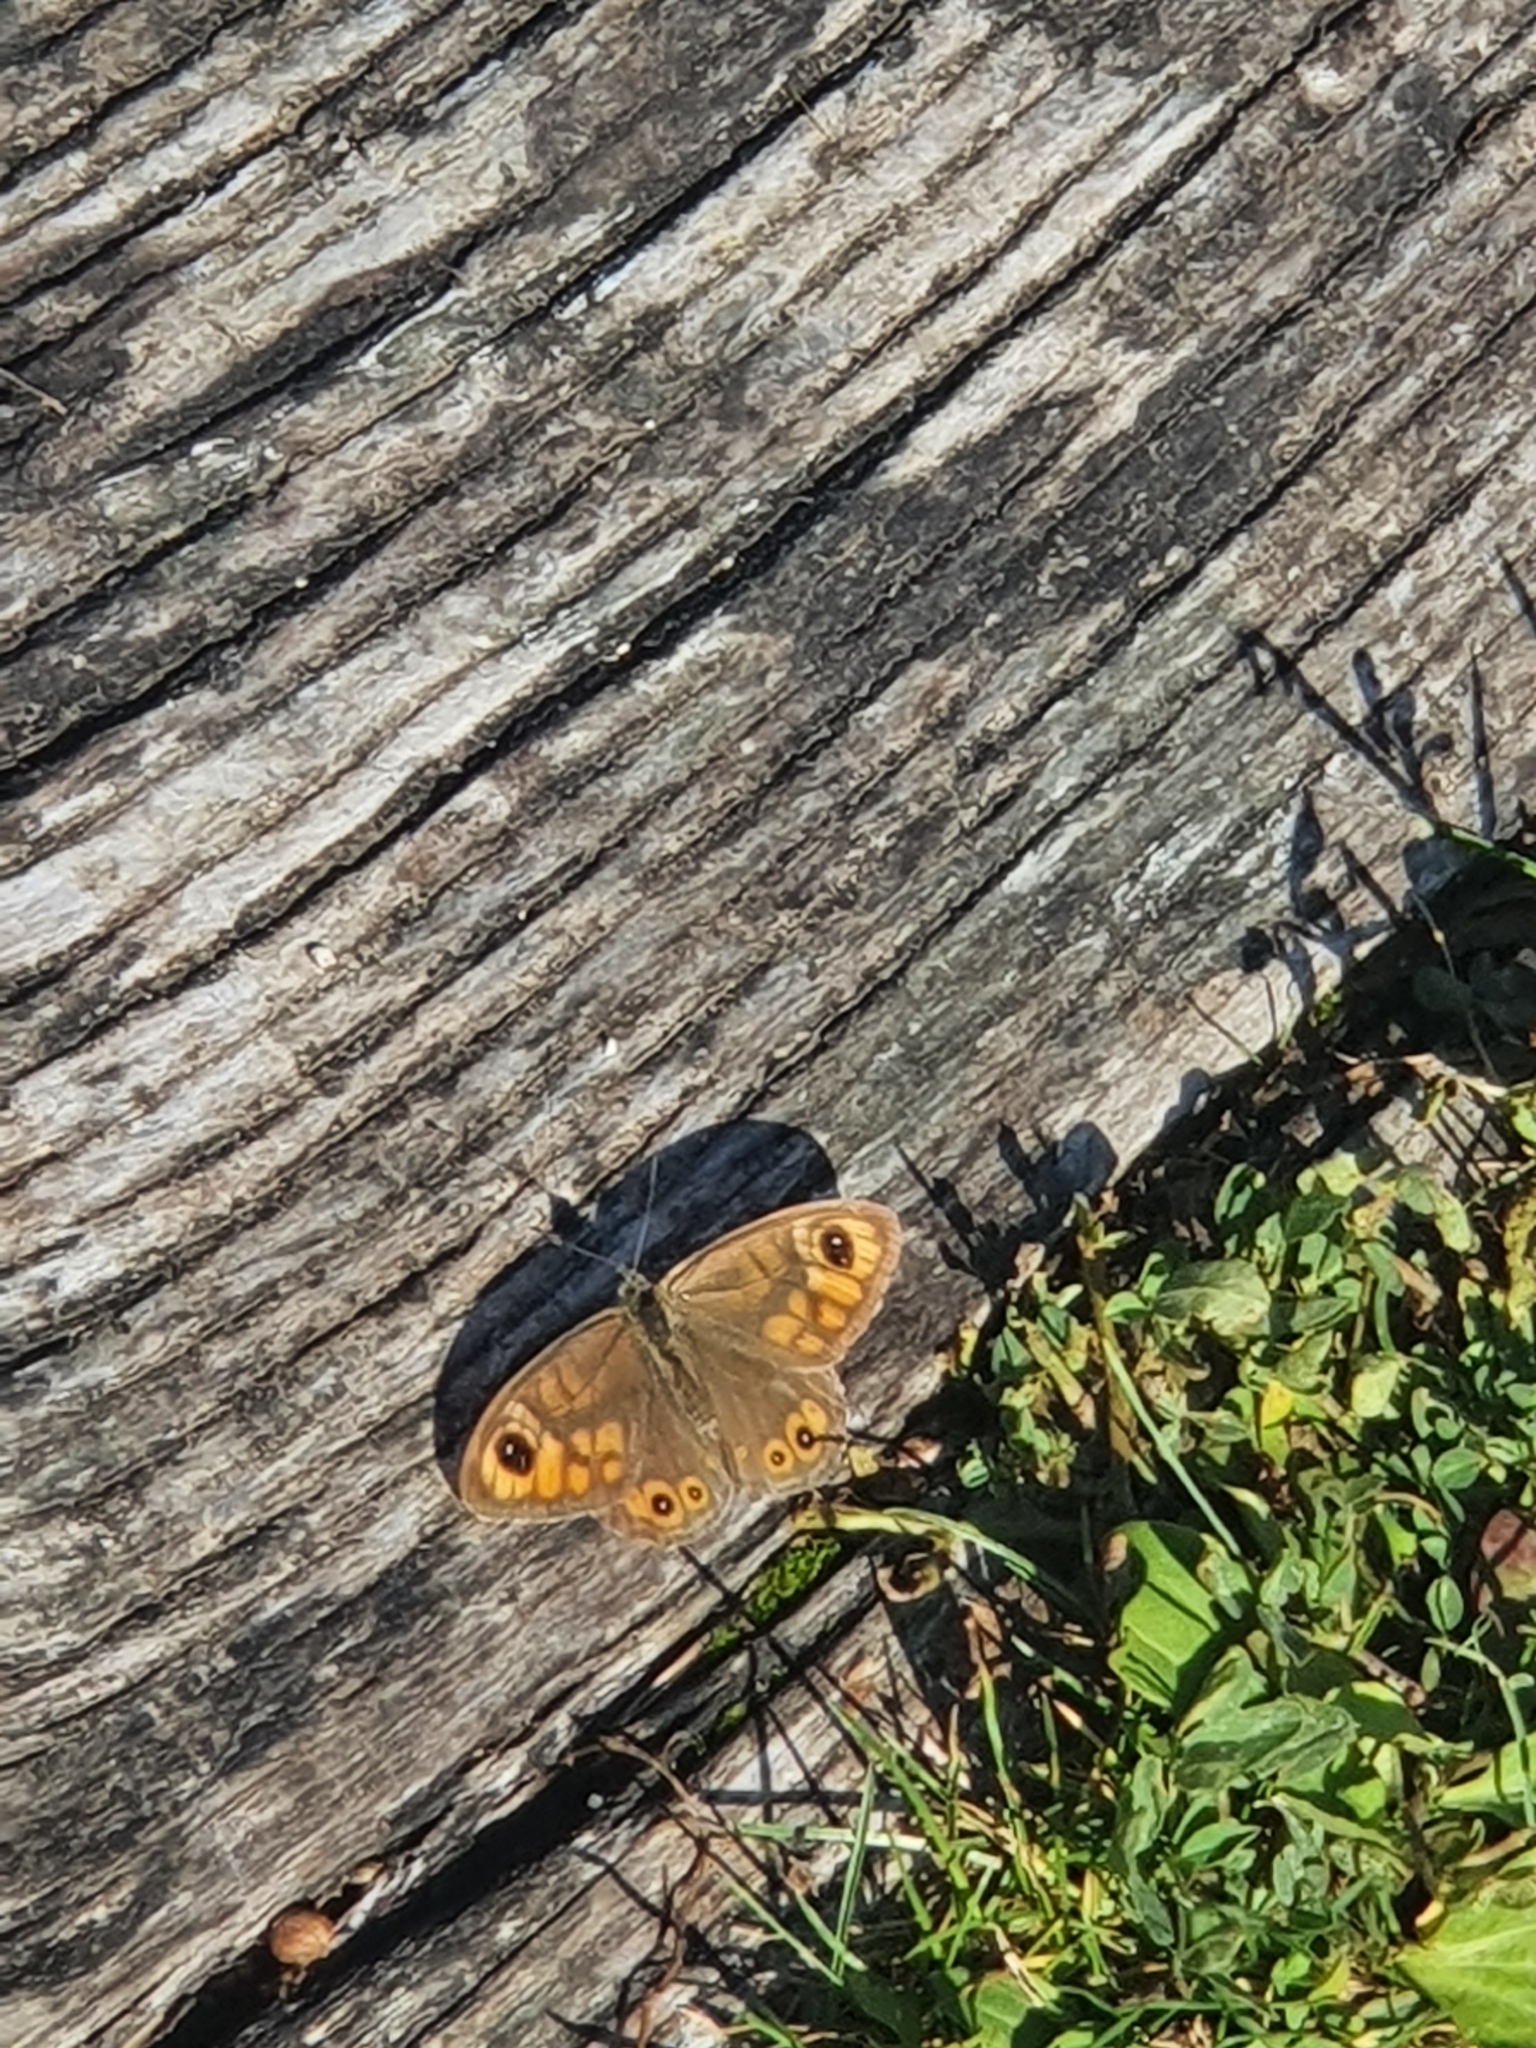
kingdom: Animalia
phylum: Arthropoda
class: Insecta
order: Lepidoptera
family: Nymphalidae
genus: Pararge
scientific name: Pararge Lasiommata maera
